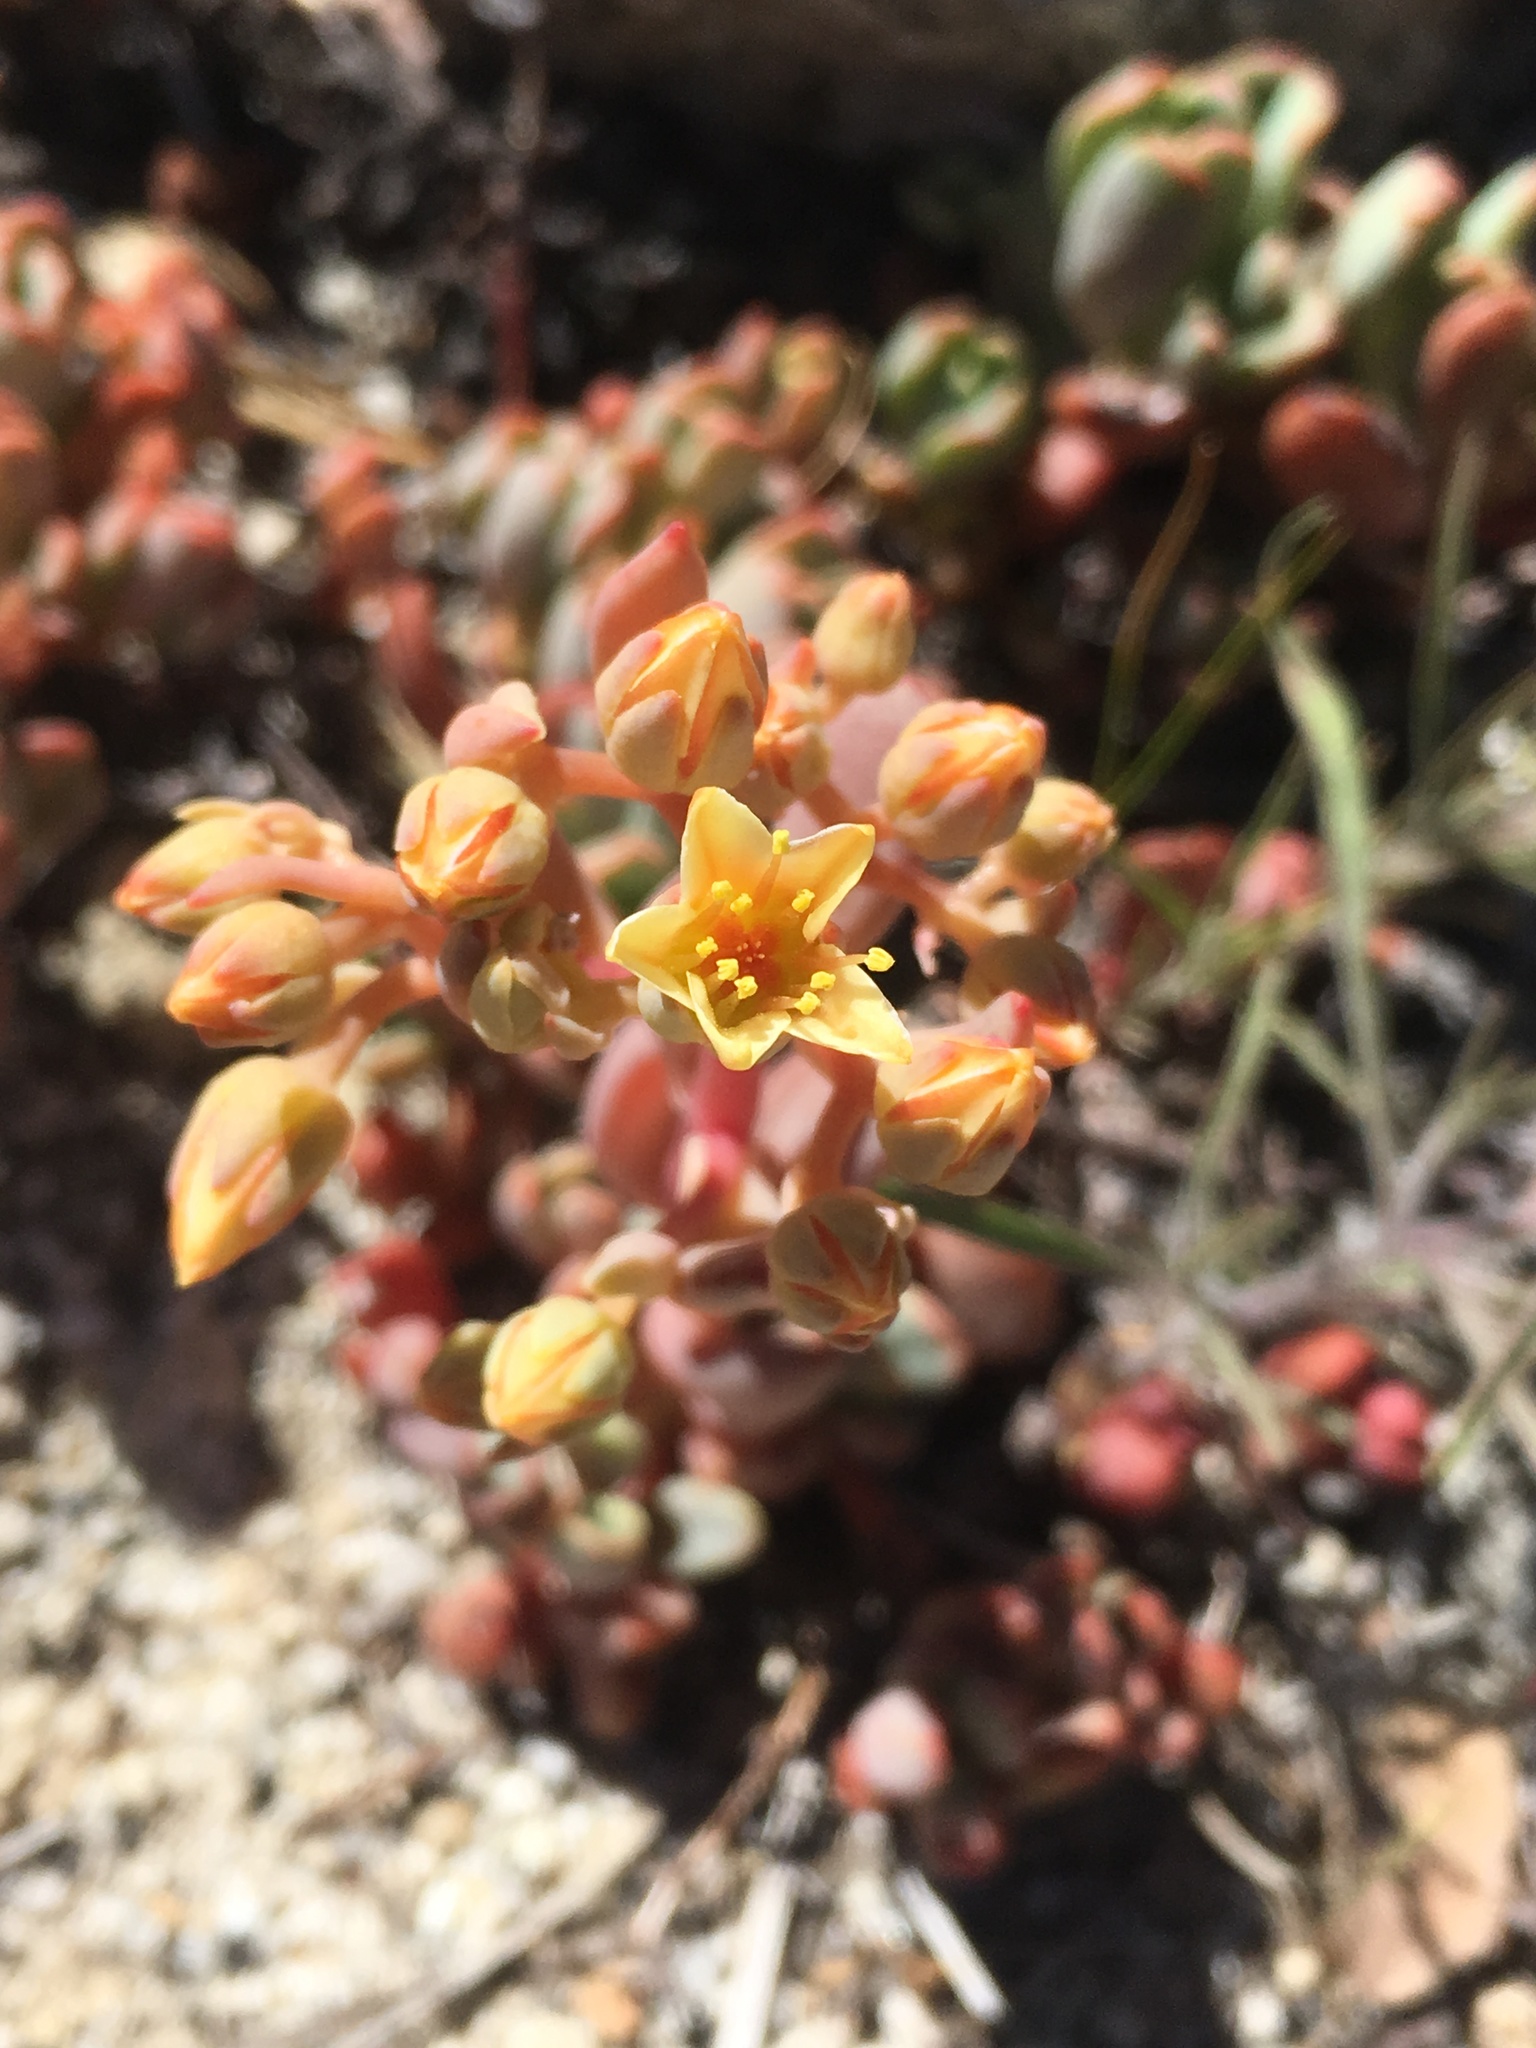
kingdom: Plantae
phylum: Tracheophyta
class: Magnoliopsida
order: Saxifragales
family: Crassulaceae
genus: Sedum
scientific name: Sedum obtusatum
